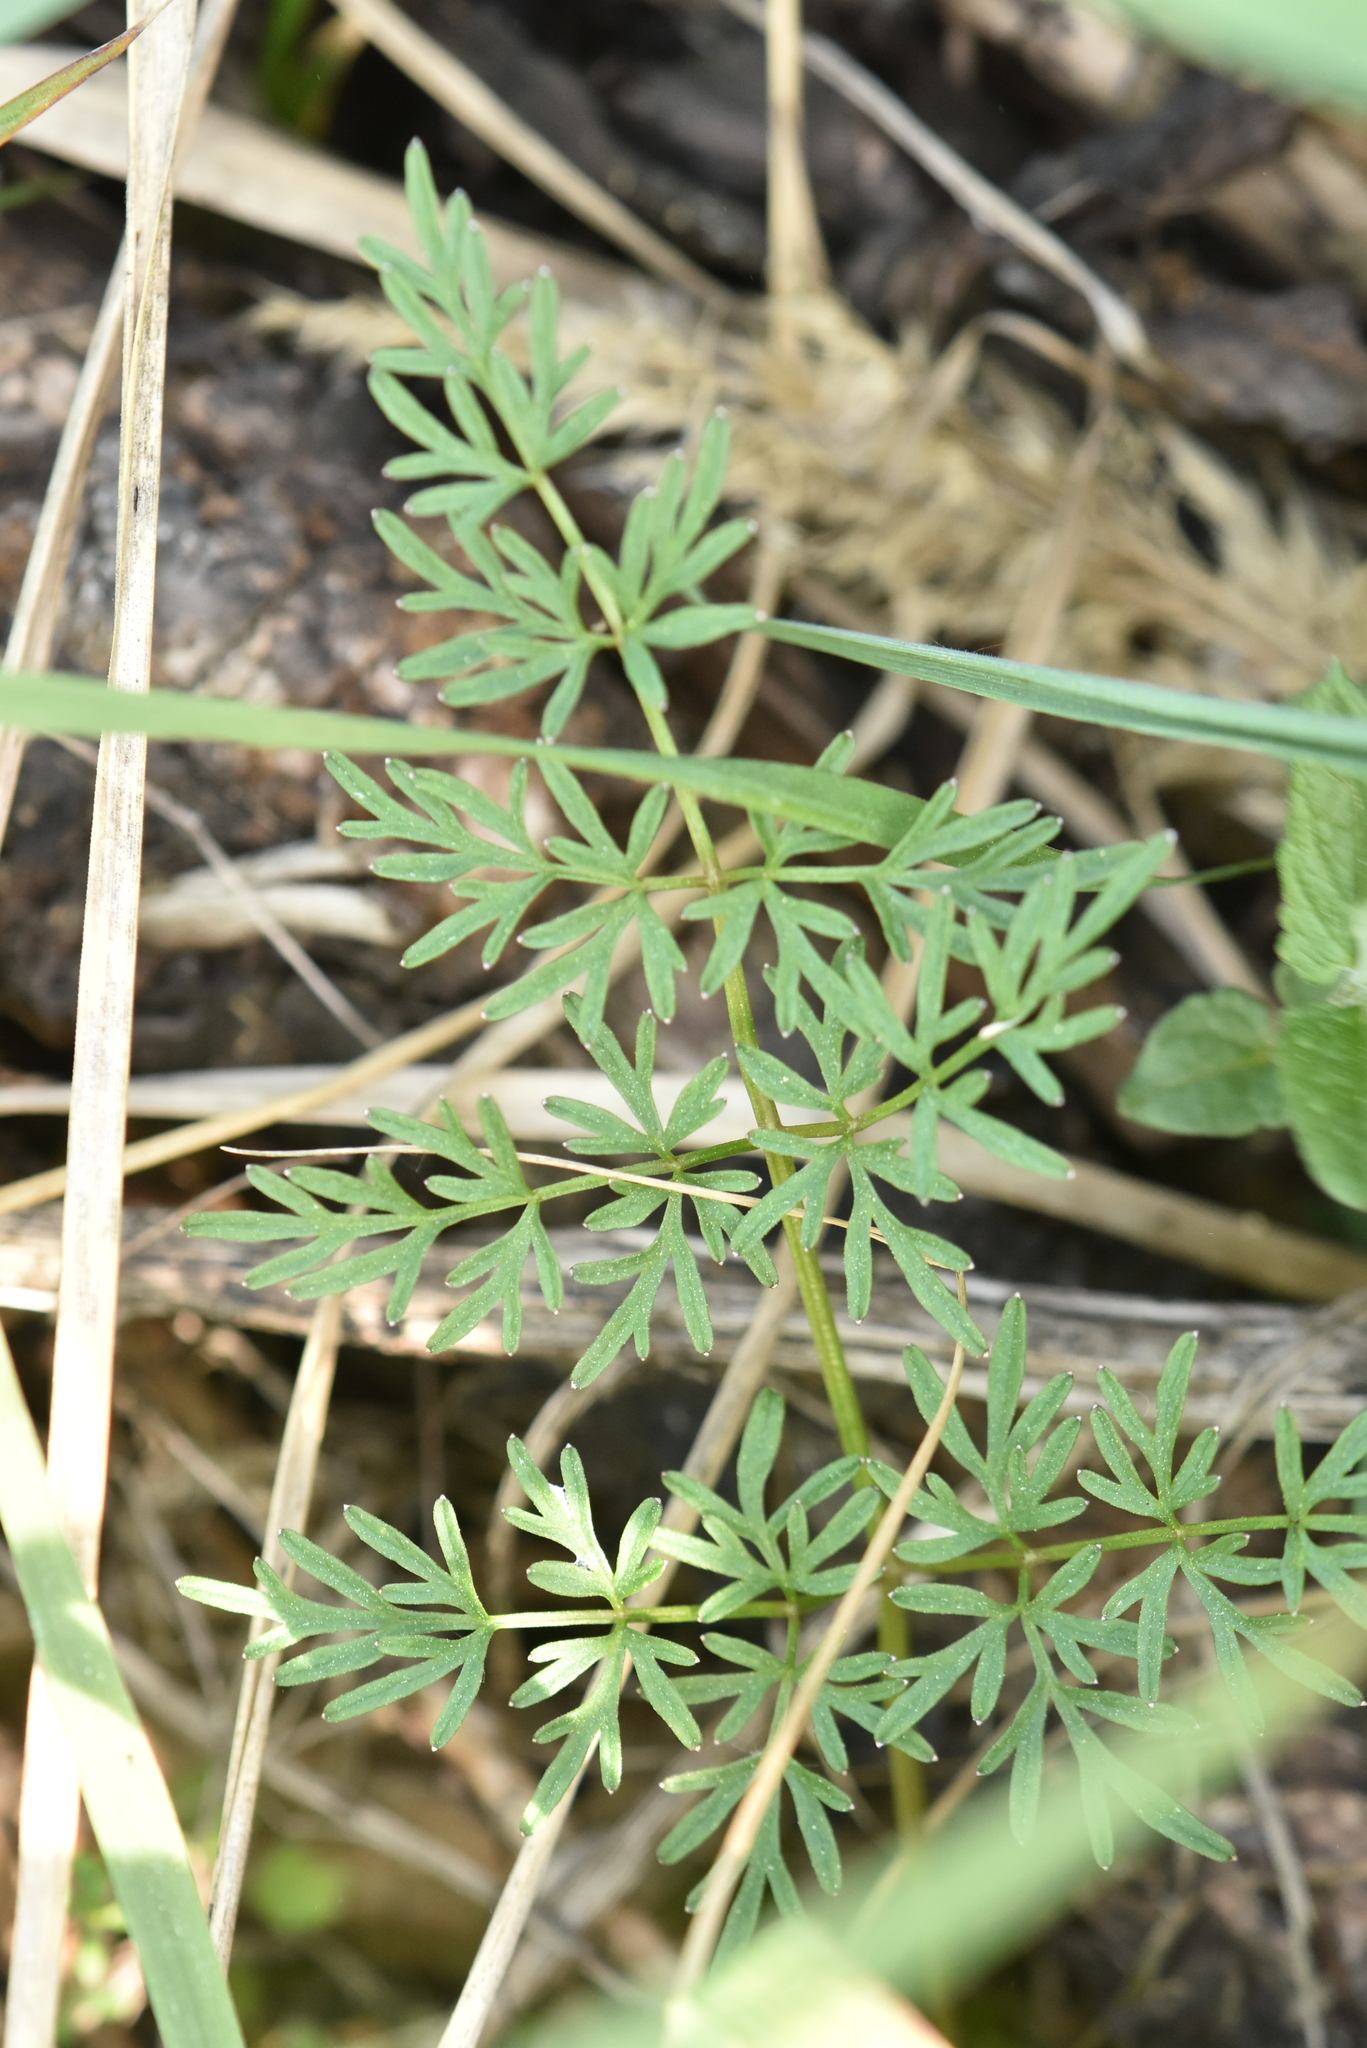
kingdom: Plantae
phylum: Tracheophyta
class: Magnoliopsida
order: Apiales
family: Apiaceae
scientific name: Apiaceae
